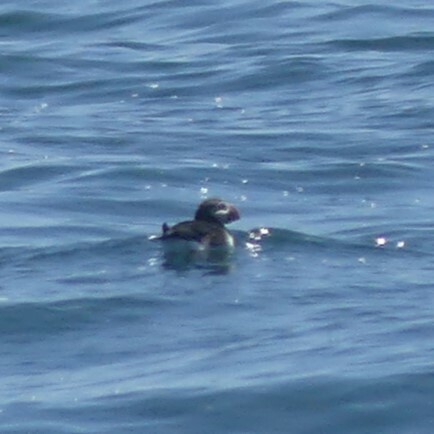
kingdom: Animalia
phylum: Chordata
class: Aves
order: Charadriiformes
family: Alcidae
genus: Fratercula
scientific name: Fratercula arctica
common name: Atlantic puffin
